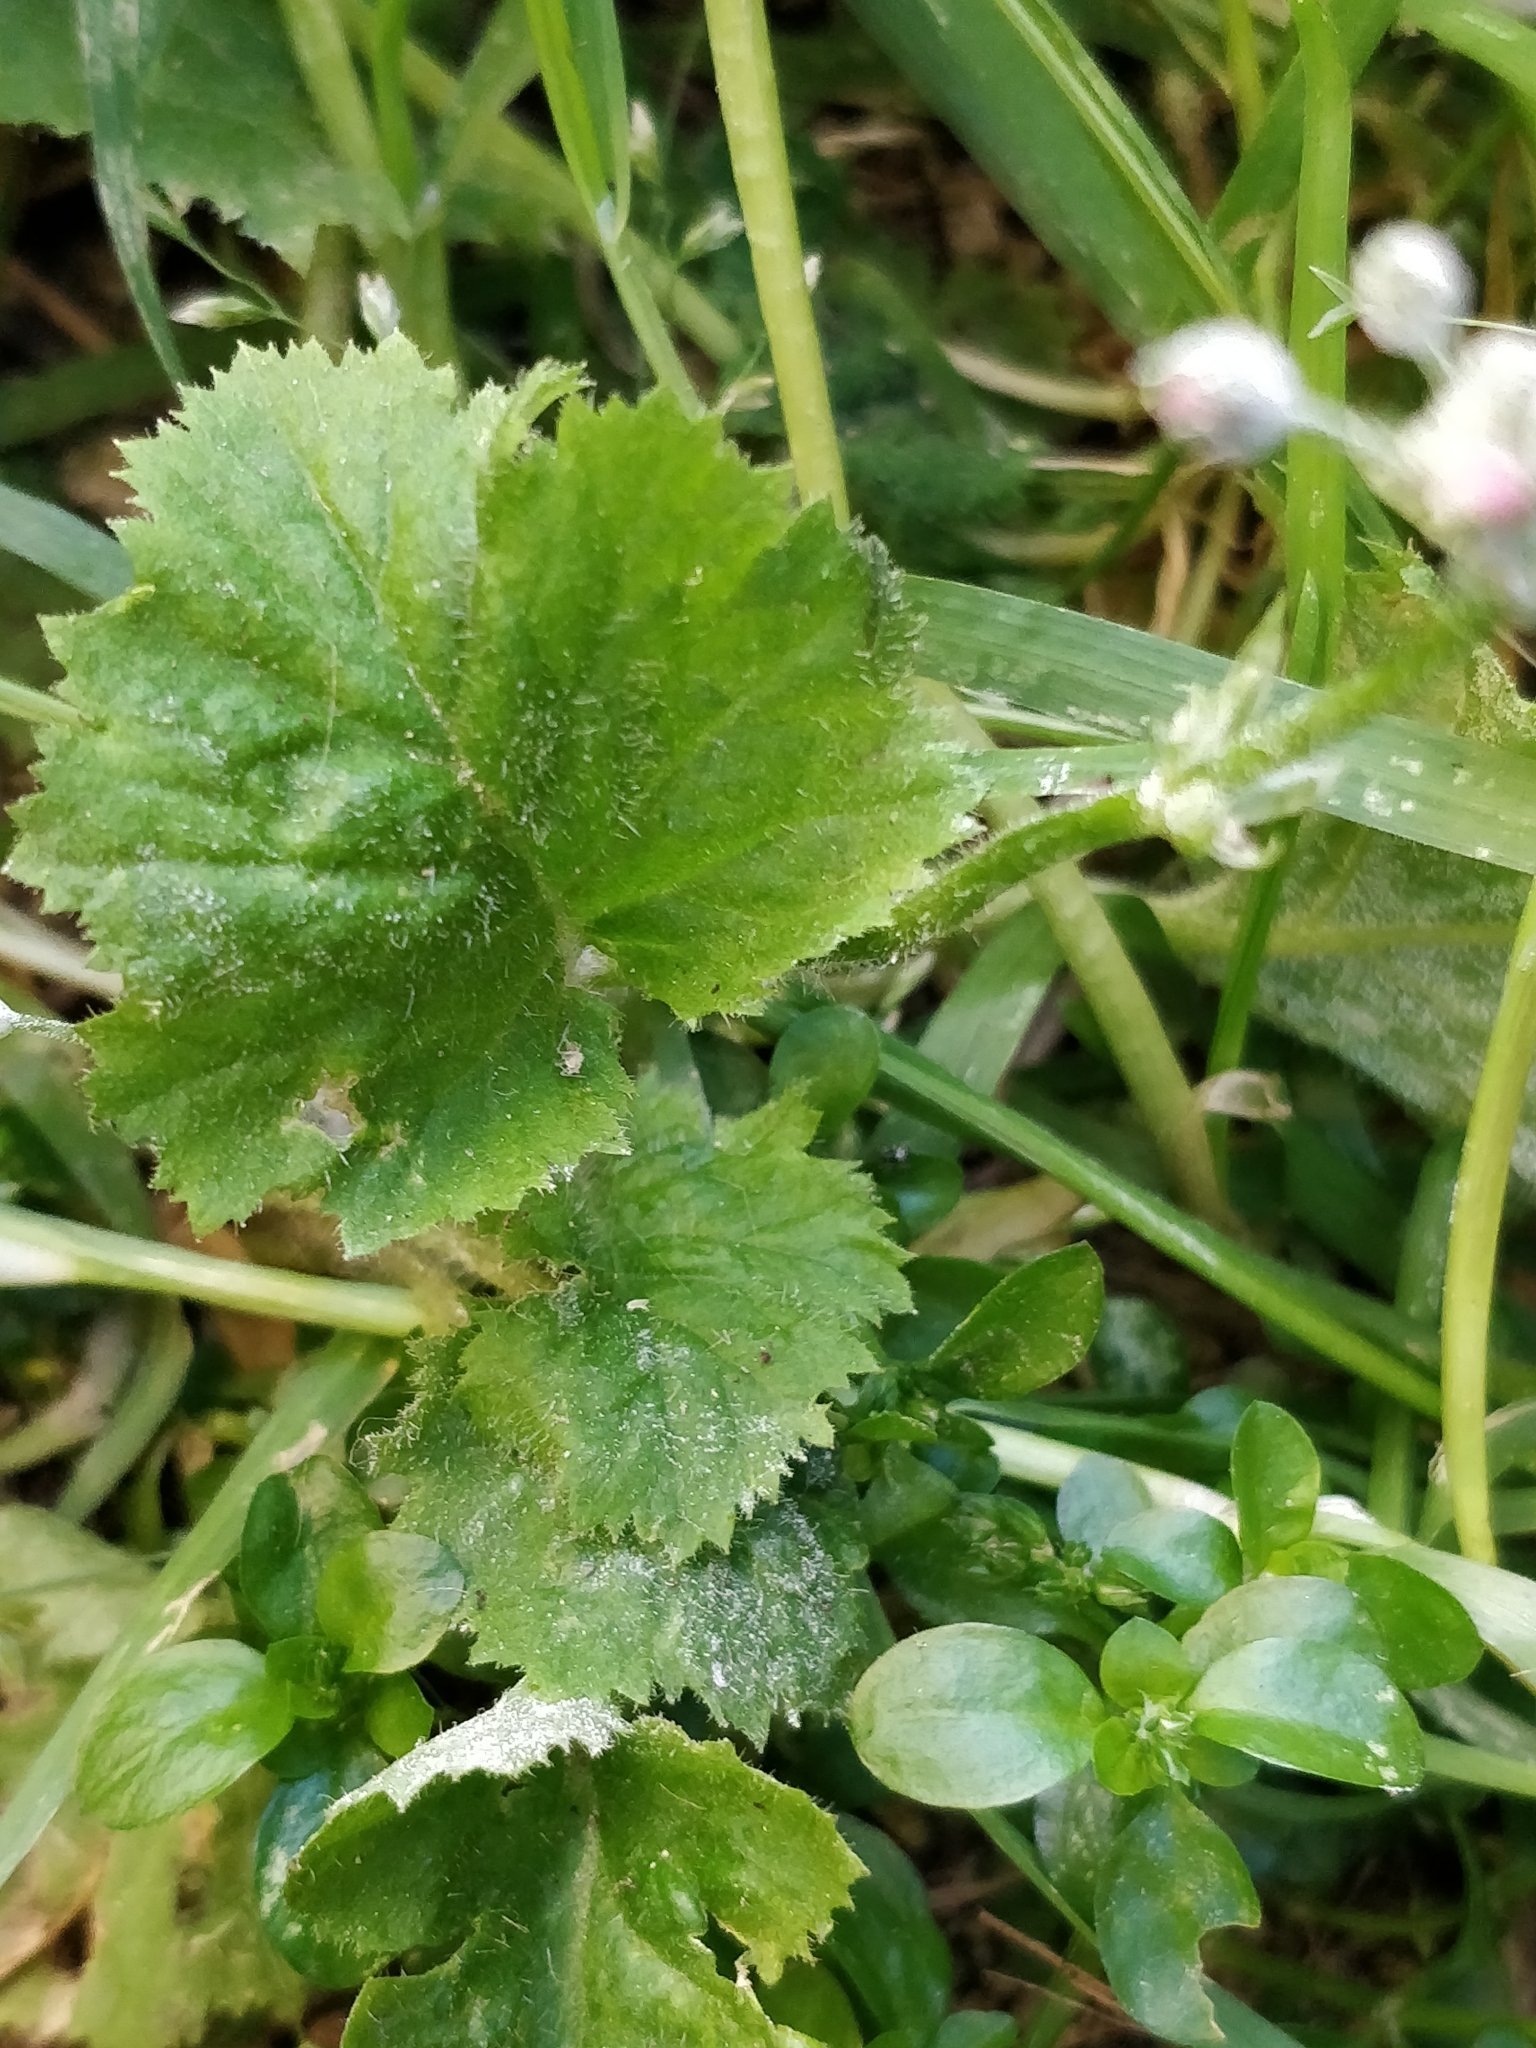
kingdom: Plantae
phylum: Tracheophyta
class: Magnoliopsida
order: Ericales
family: Primulaceae
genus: Primula
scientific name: Primula malacoides
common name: Baby primrose
